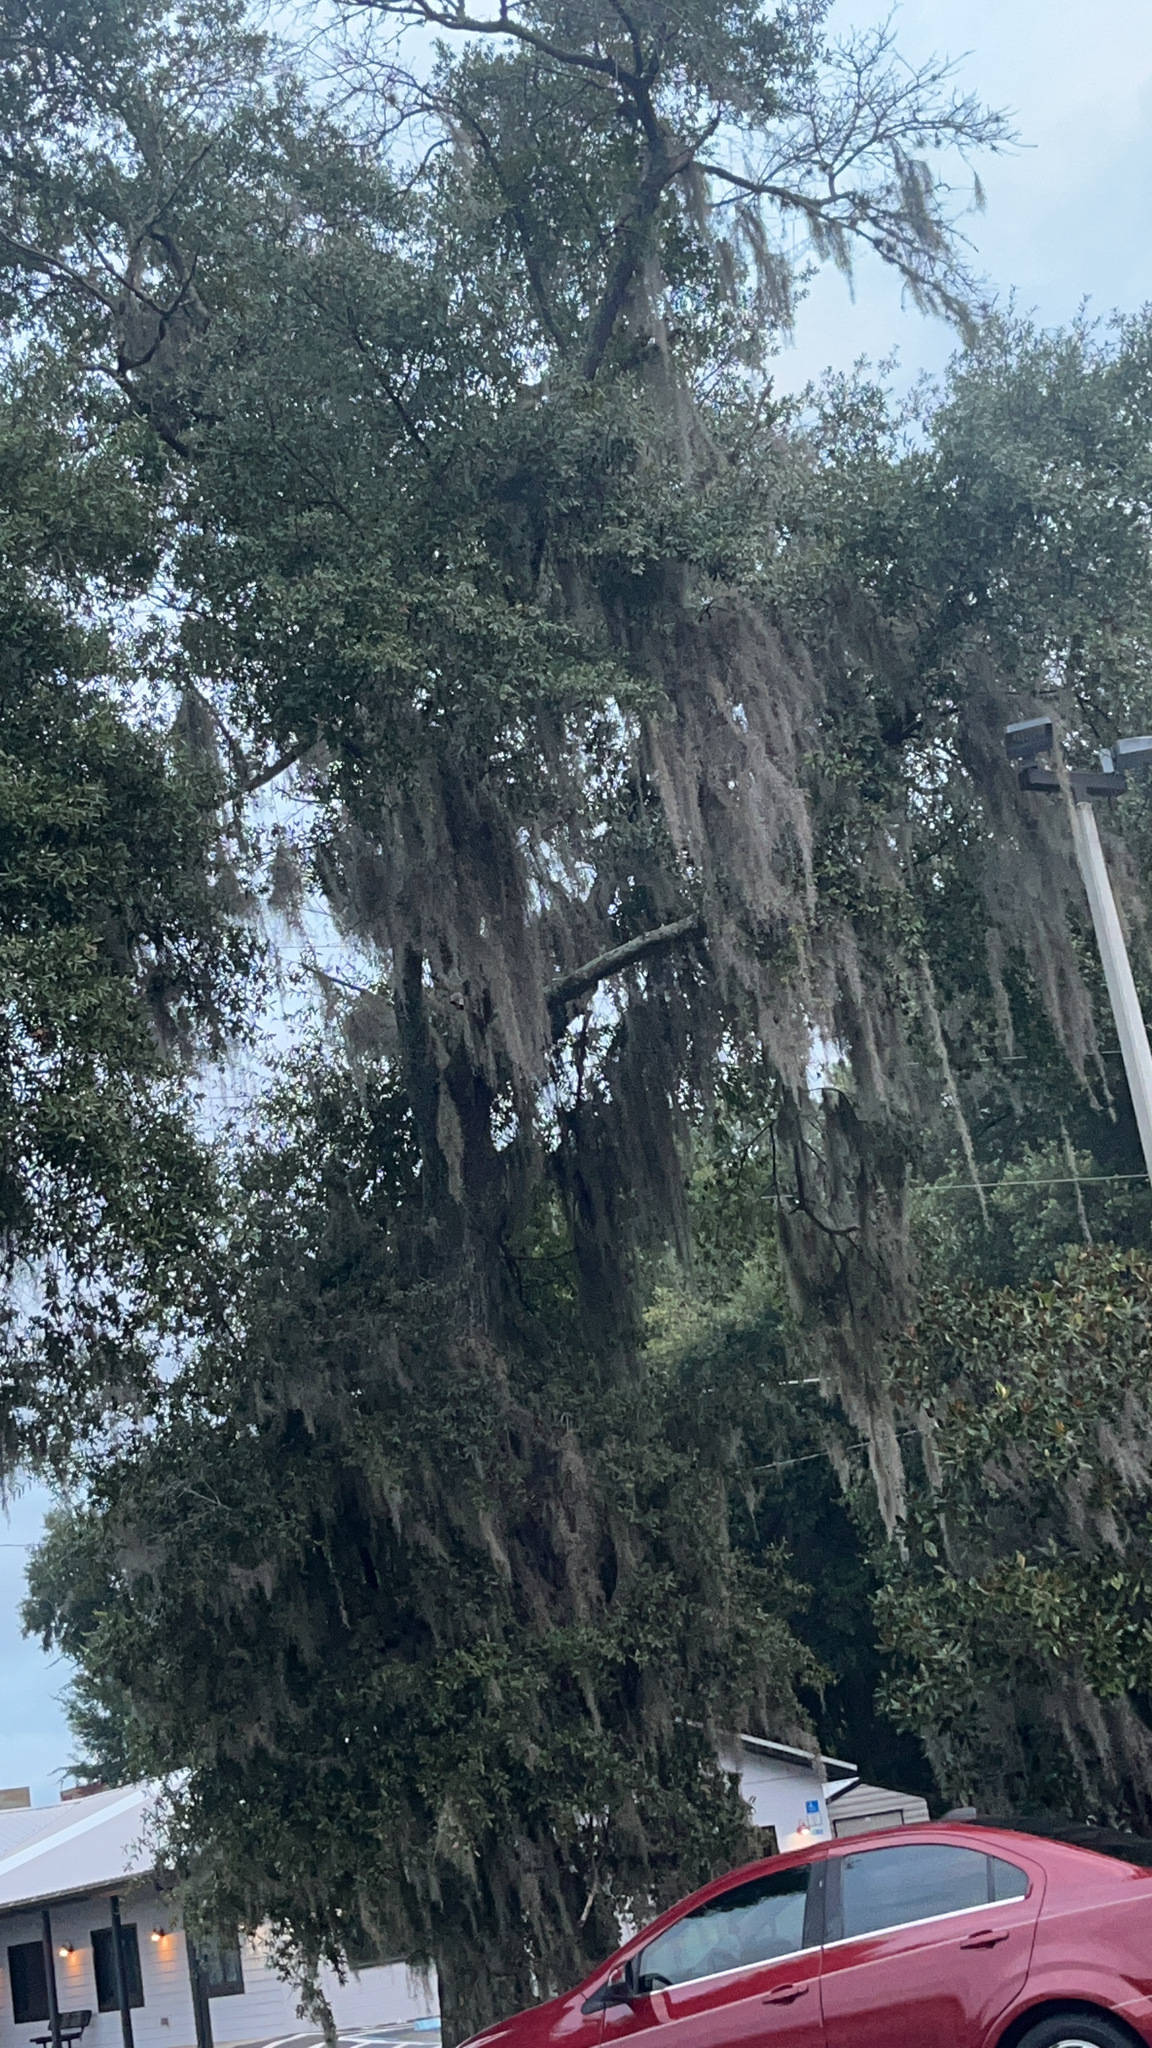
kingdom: Plantae
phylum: Tracheophyta
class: Liliopsida
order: Poales
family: Bromeliaceae
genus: Tillandsia
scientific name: Tillandsia usneoides
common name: Spanish moss
